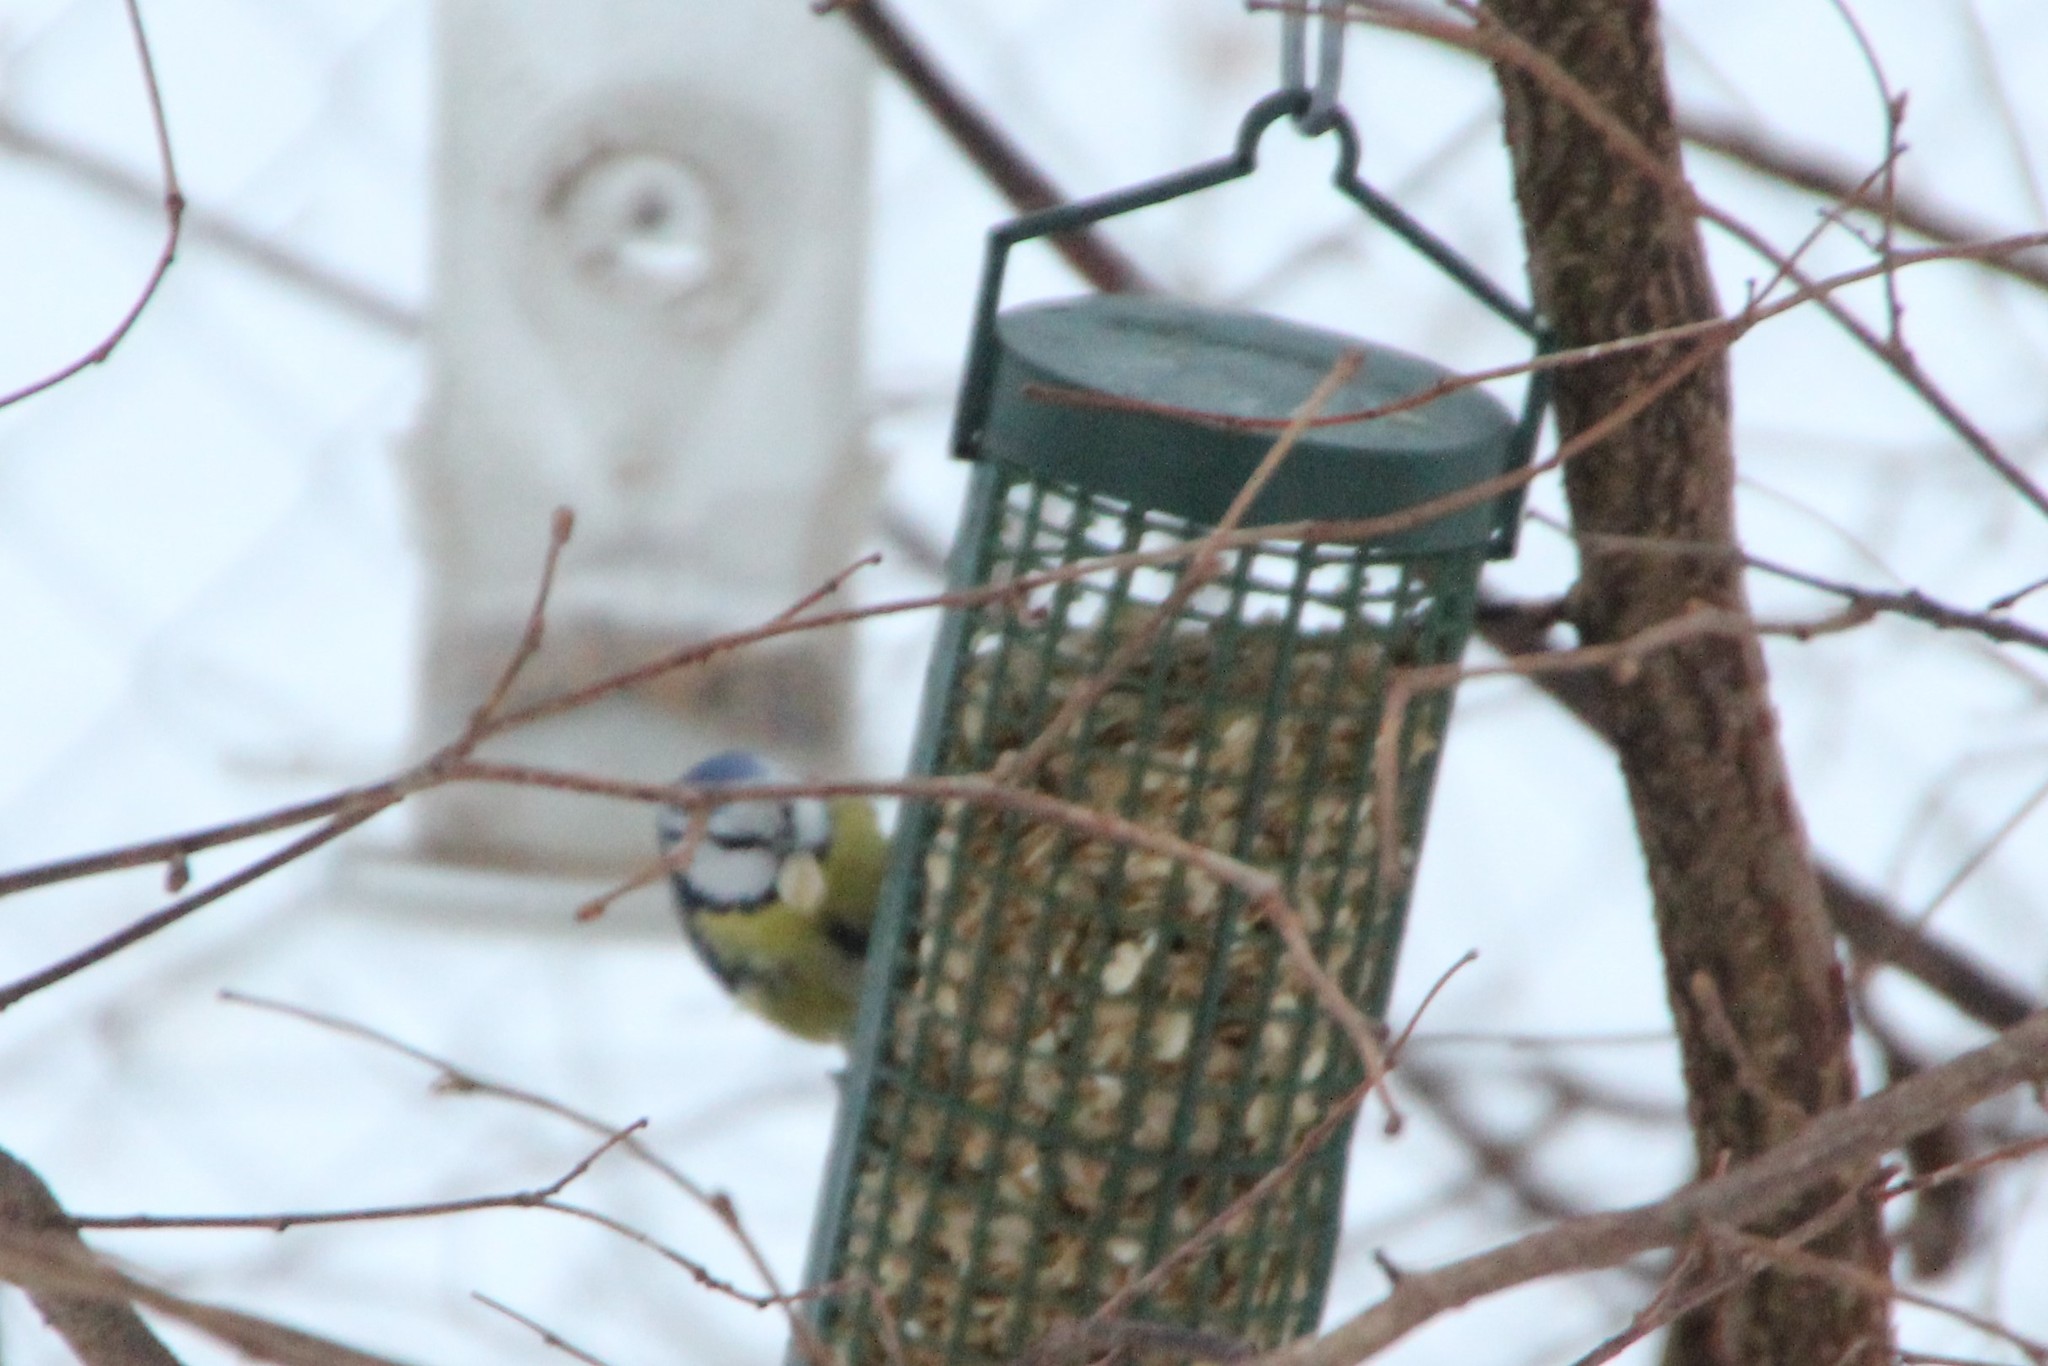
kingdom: Animalia
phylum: Chordata
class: Aves
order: Passeriformes
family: Paridae
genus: Cyanistes
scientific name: Cyanistes caeruleus
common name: Eurasian blue tit
